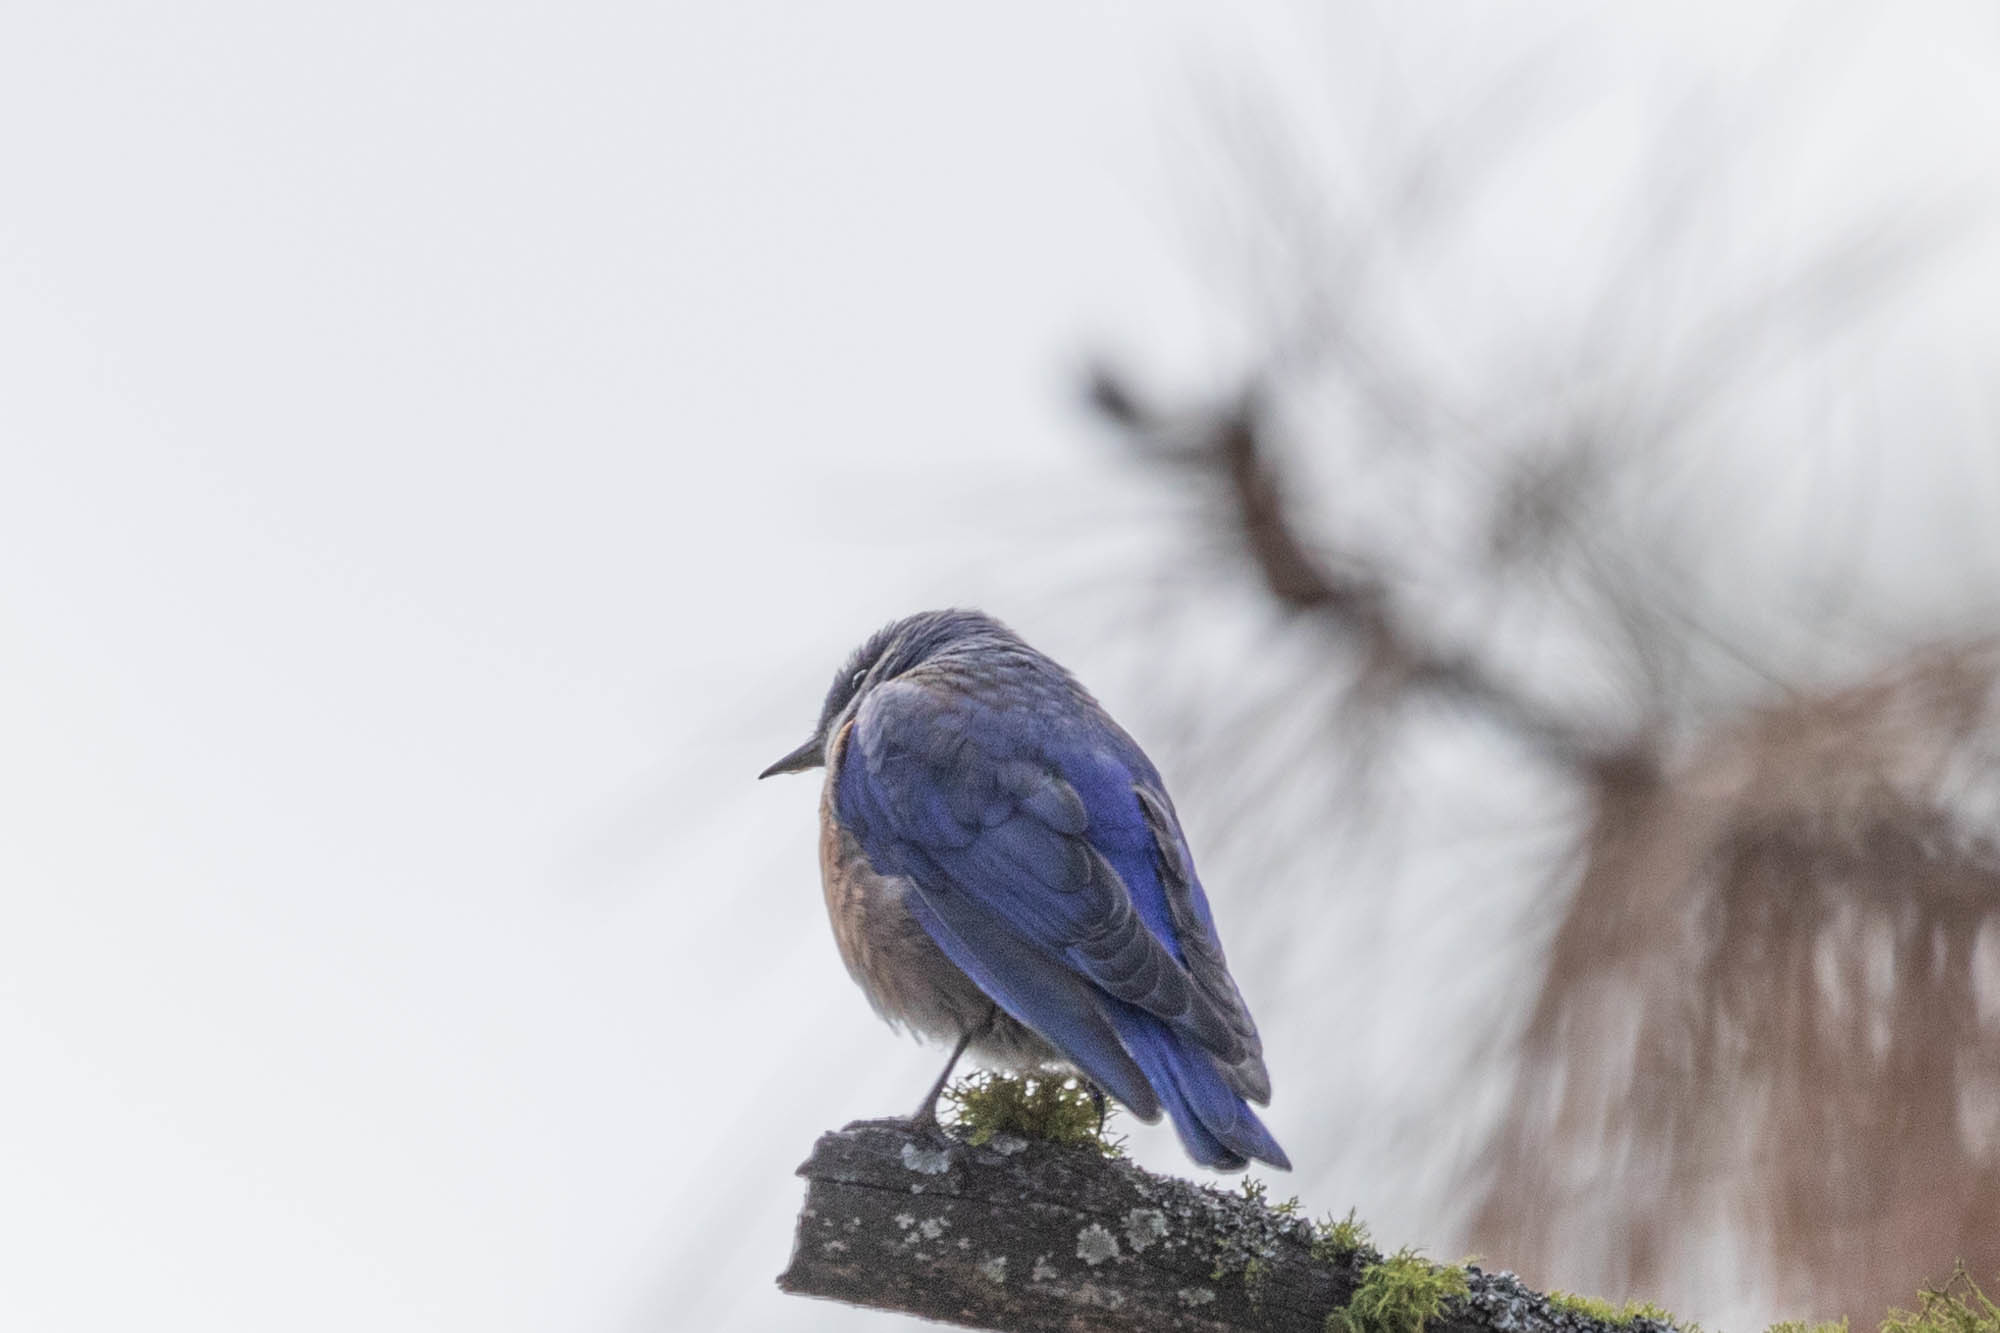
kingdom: Animalia
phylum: Chordata
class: Aves
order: Passeriformes
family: Turdidae
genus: Sialia
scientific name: Sialia mexicana
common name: Western bluebird
